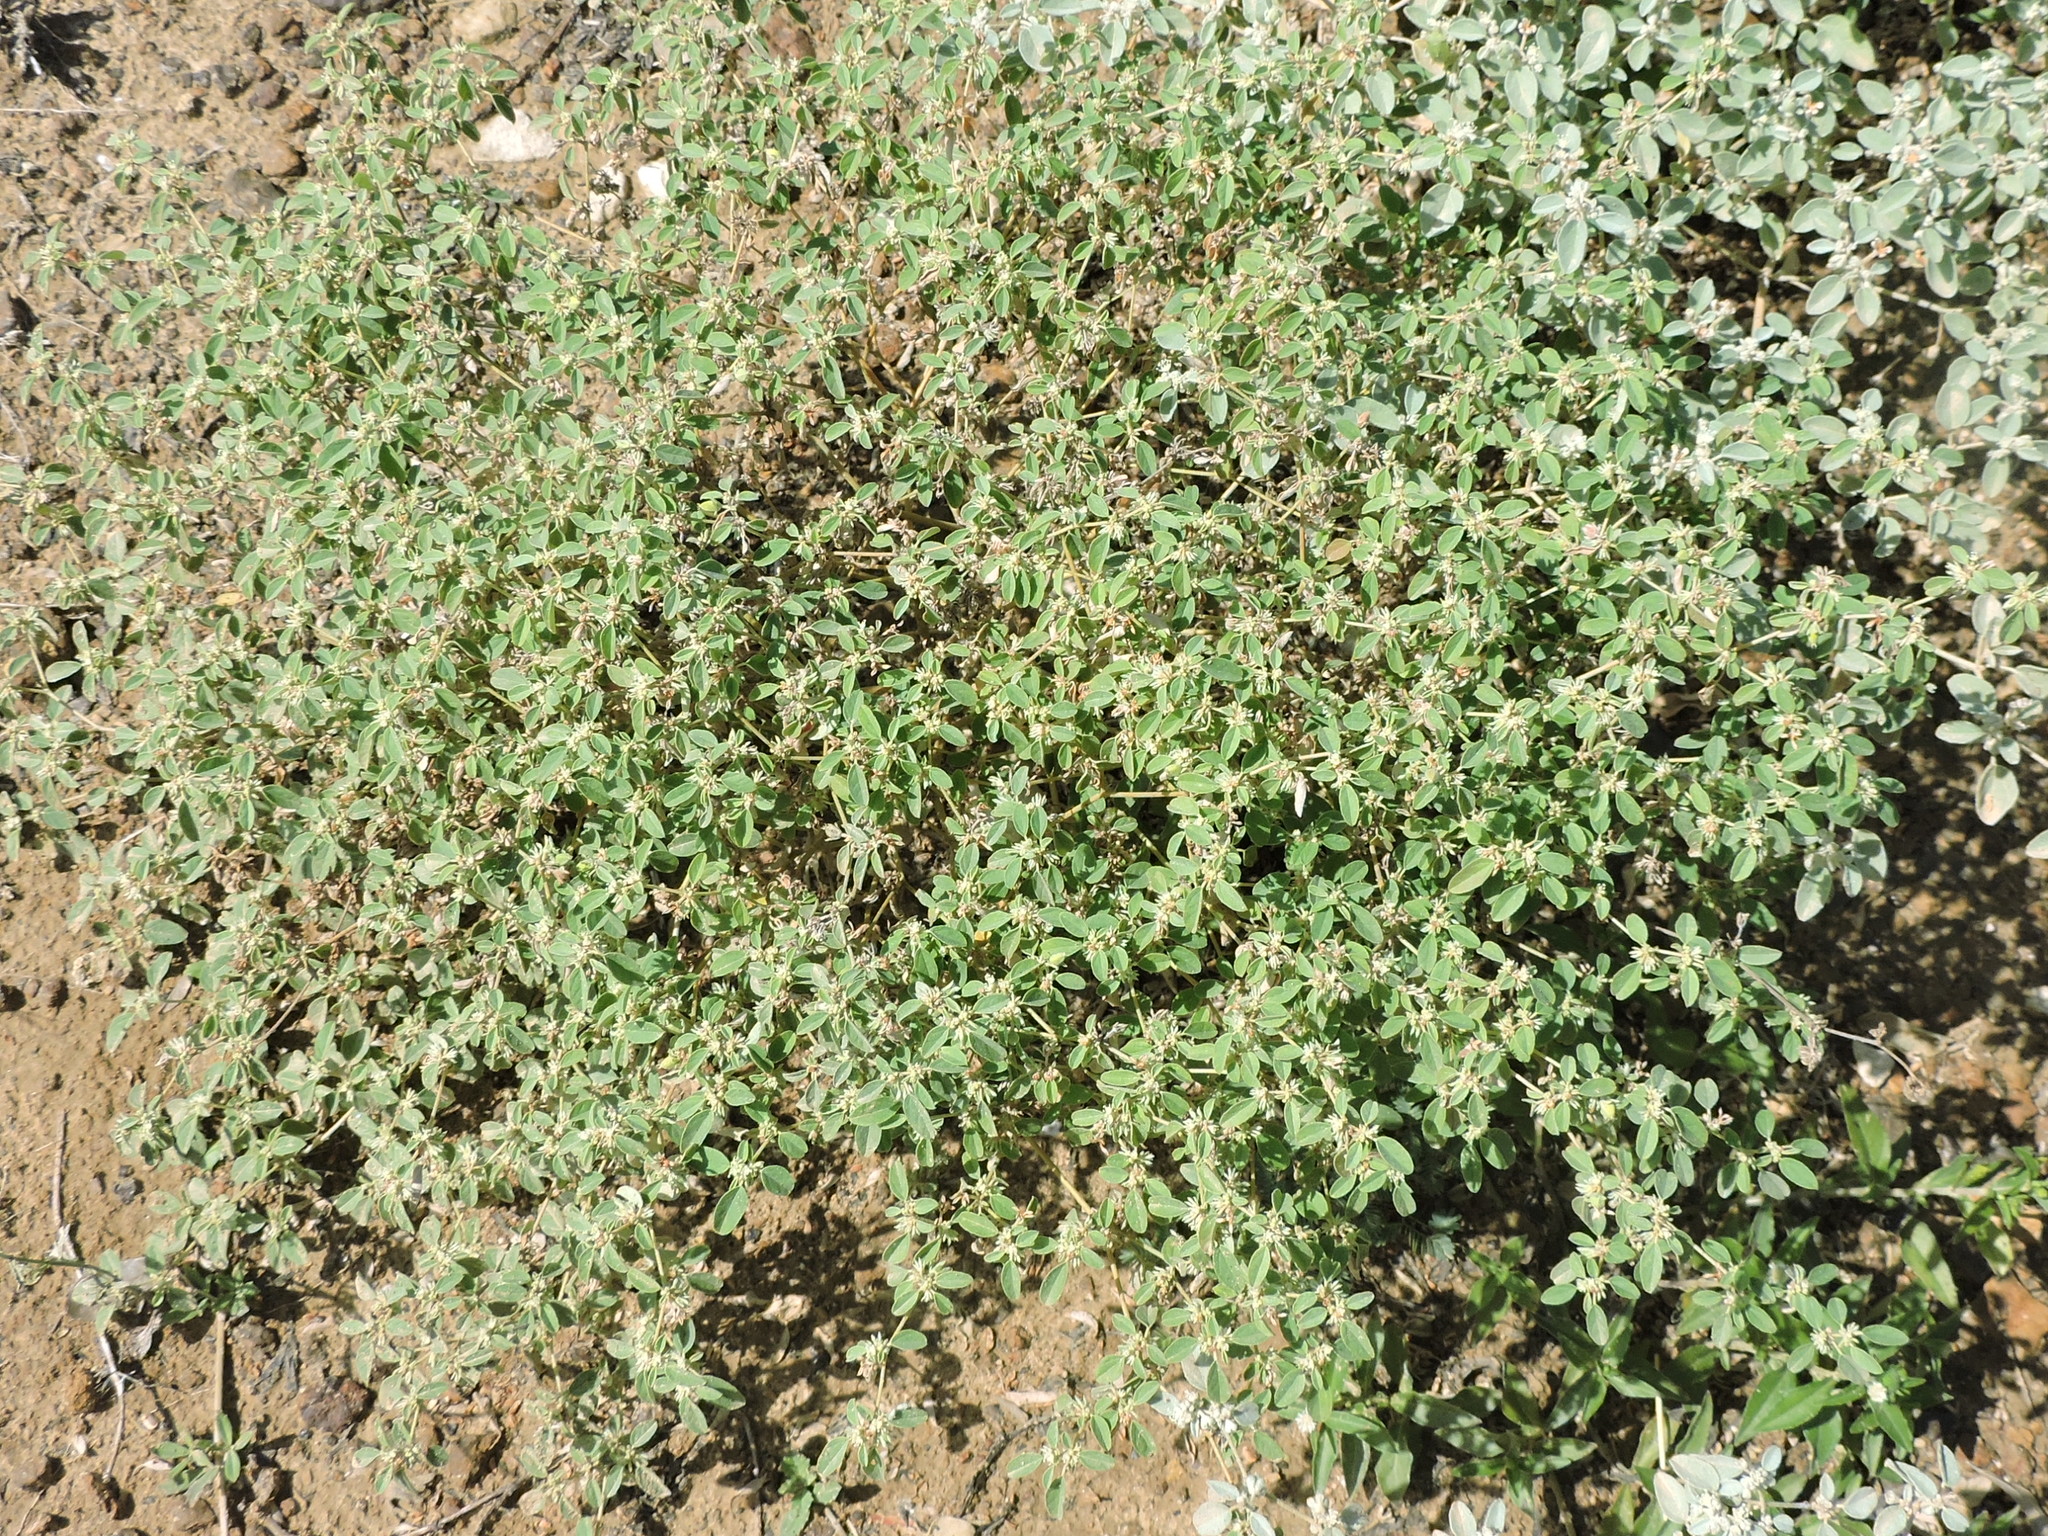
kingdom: Plantae
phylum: Tracheophyta
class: Magnoliopsida
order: Malpighiales
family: Euphorbiaceae
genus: Croton
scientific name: Croton monanthogynus
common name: One-seed croton
